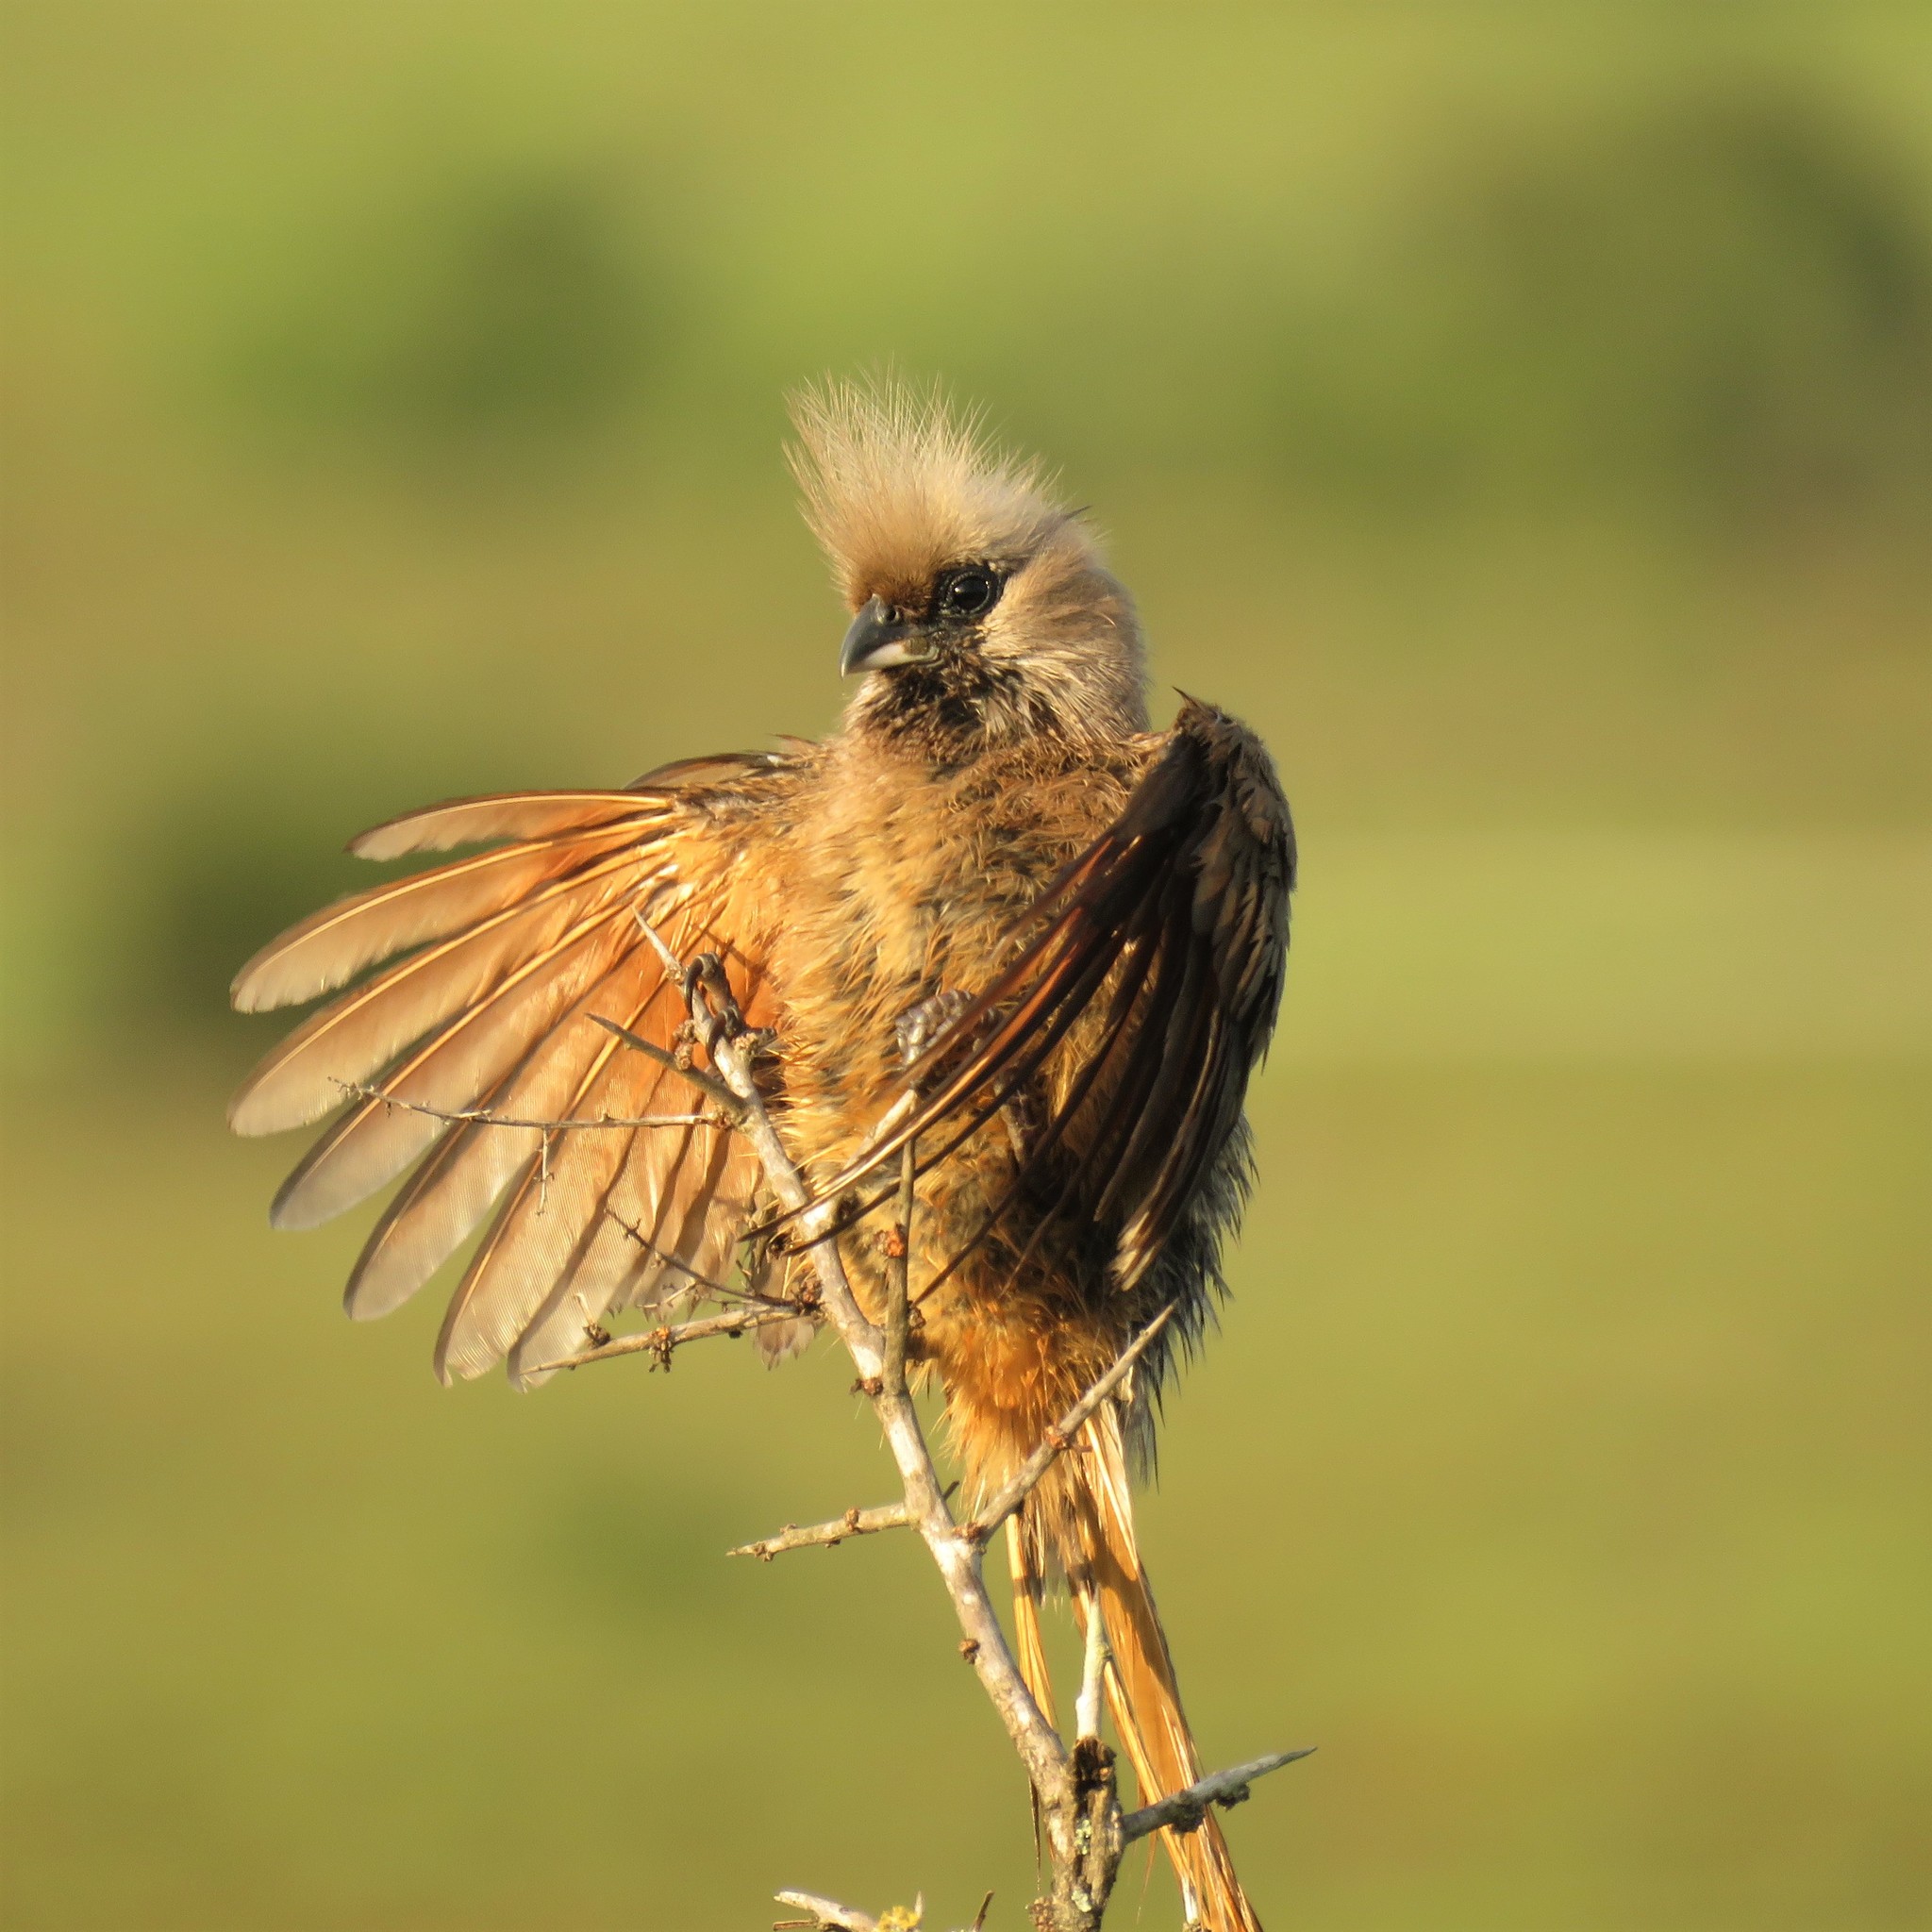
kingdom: Animalia
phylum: Chordata
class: Aves
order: Coliiformes
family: Coliidae
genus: Colius
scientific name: Colius striatus
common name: Speckled mousebird
